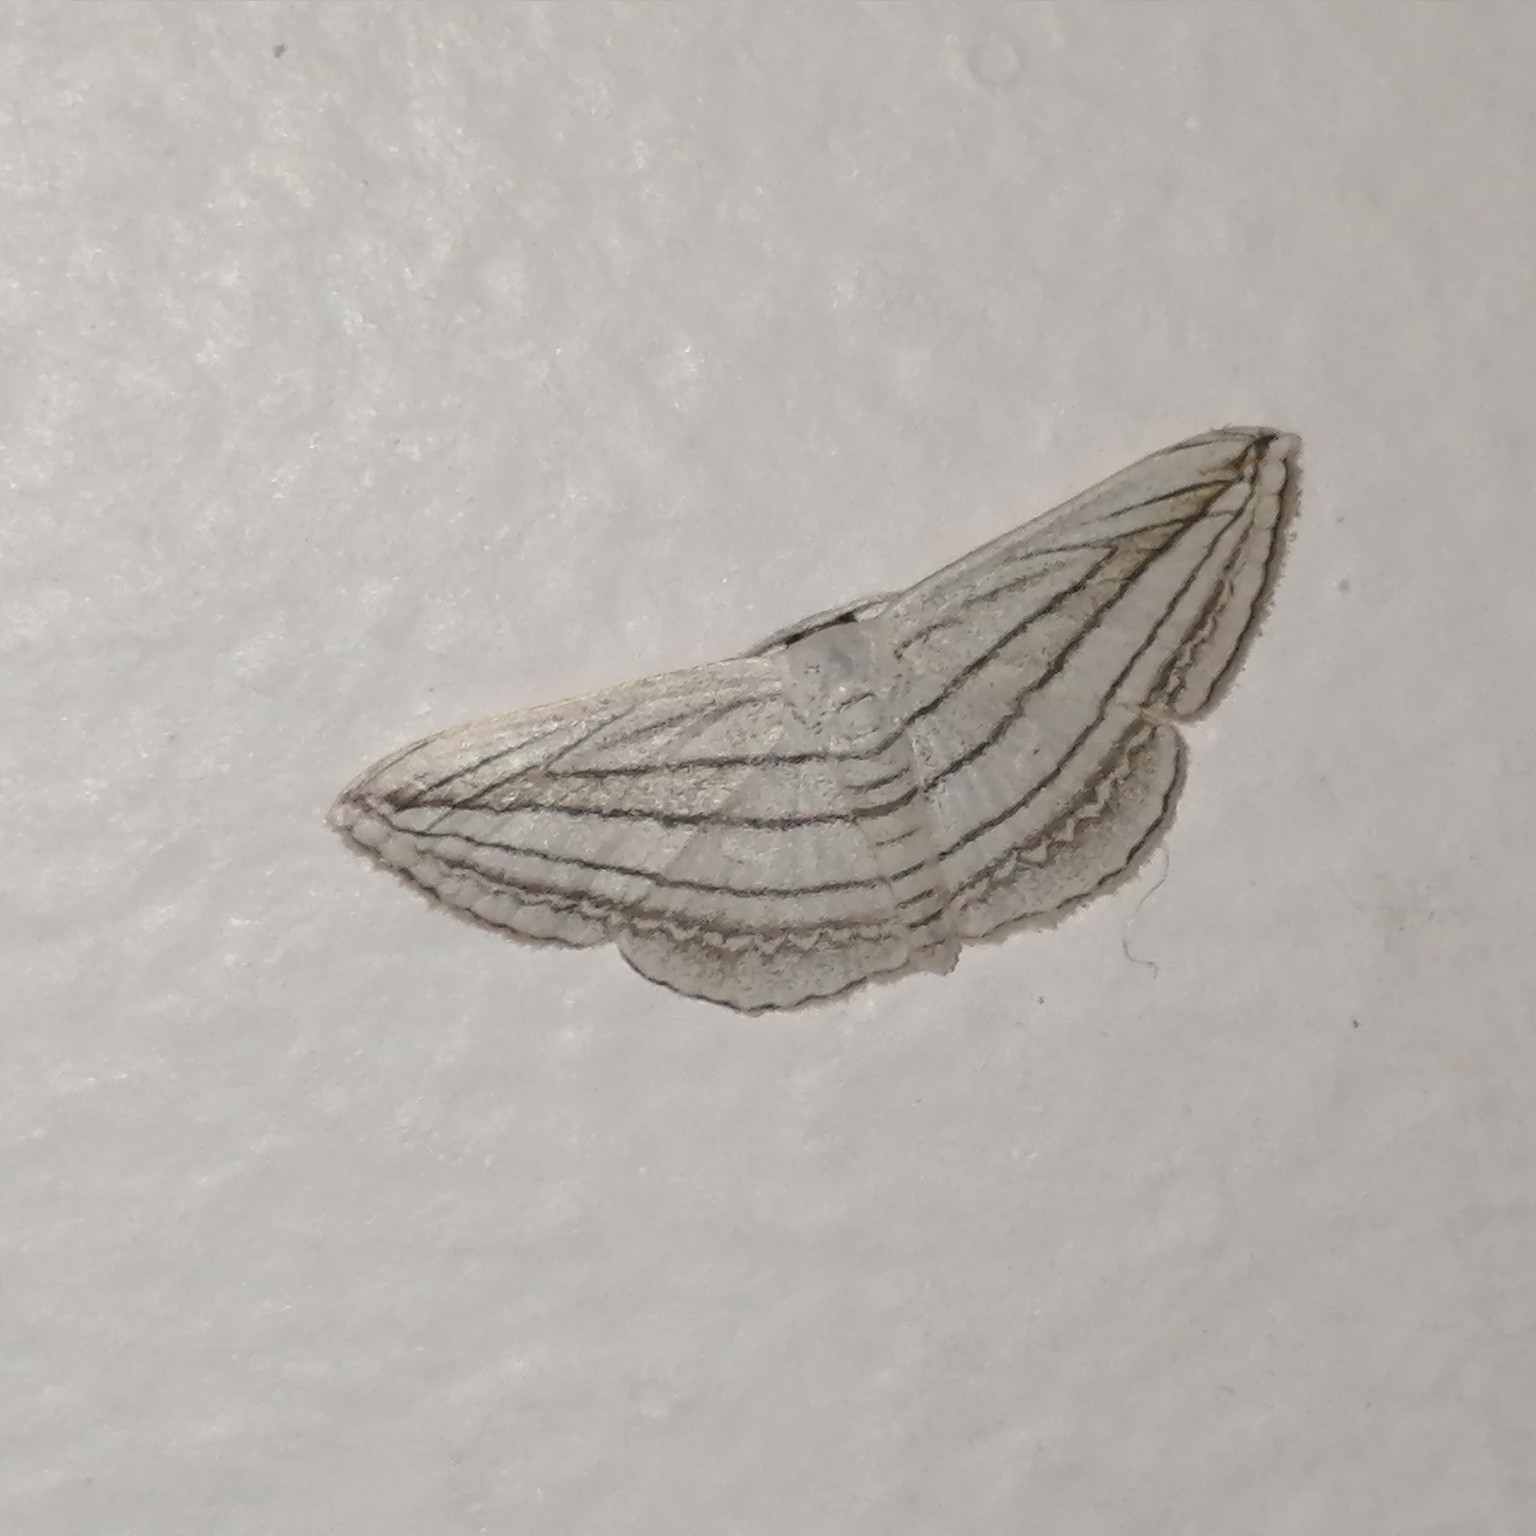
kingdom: Animalia
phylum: Arthropoda
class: Insecta
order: Lepidoptera
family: Geometridae
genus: Scopula
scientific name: Scopula opicata
